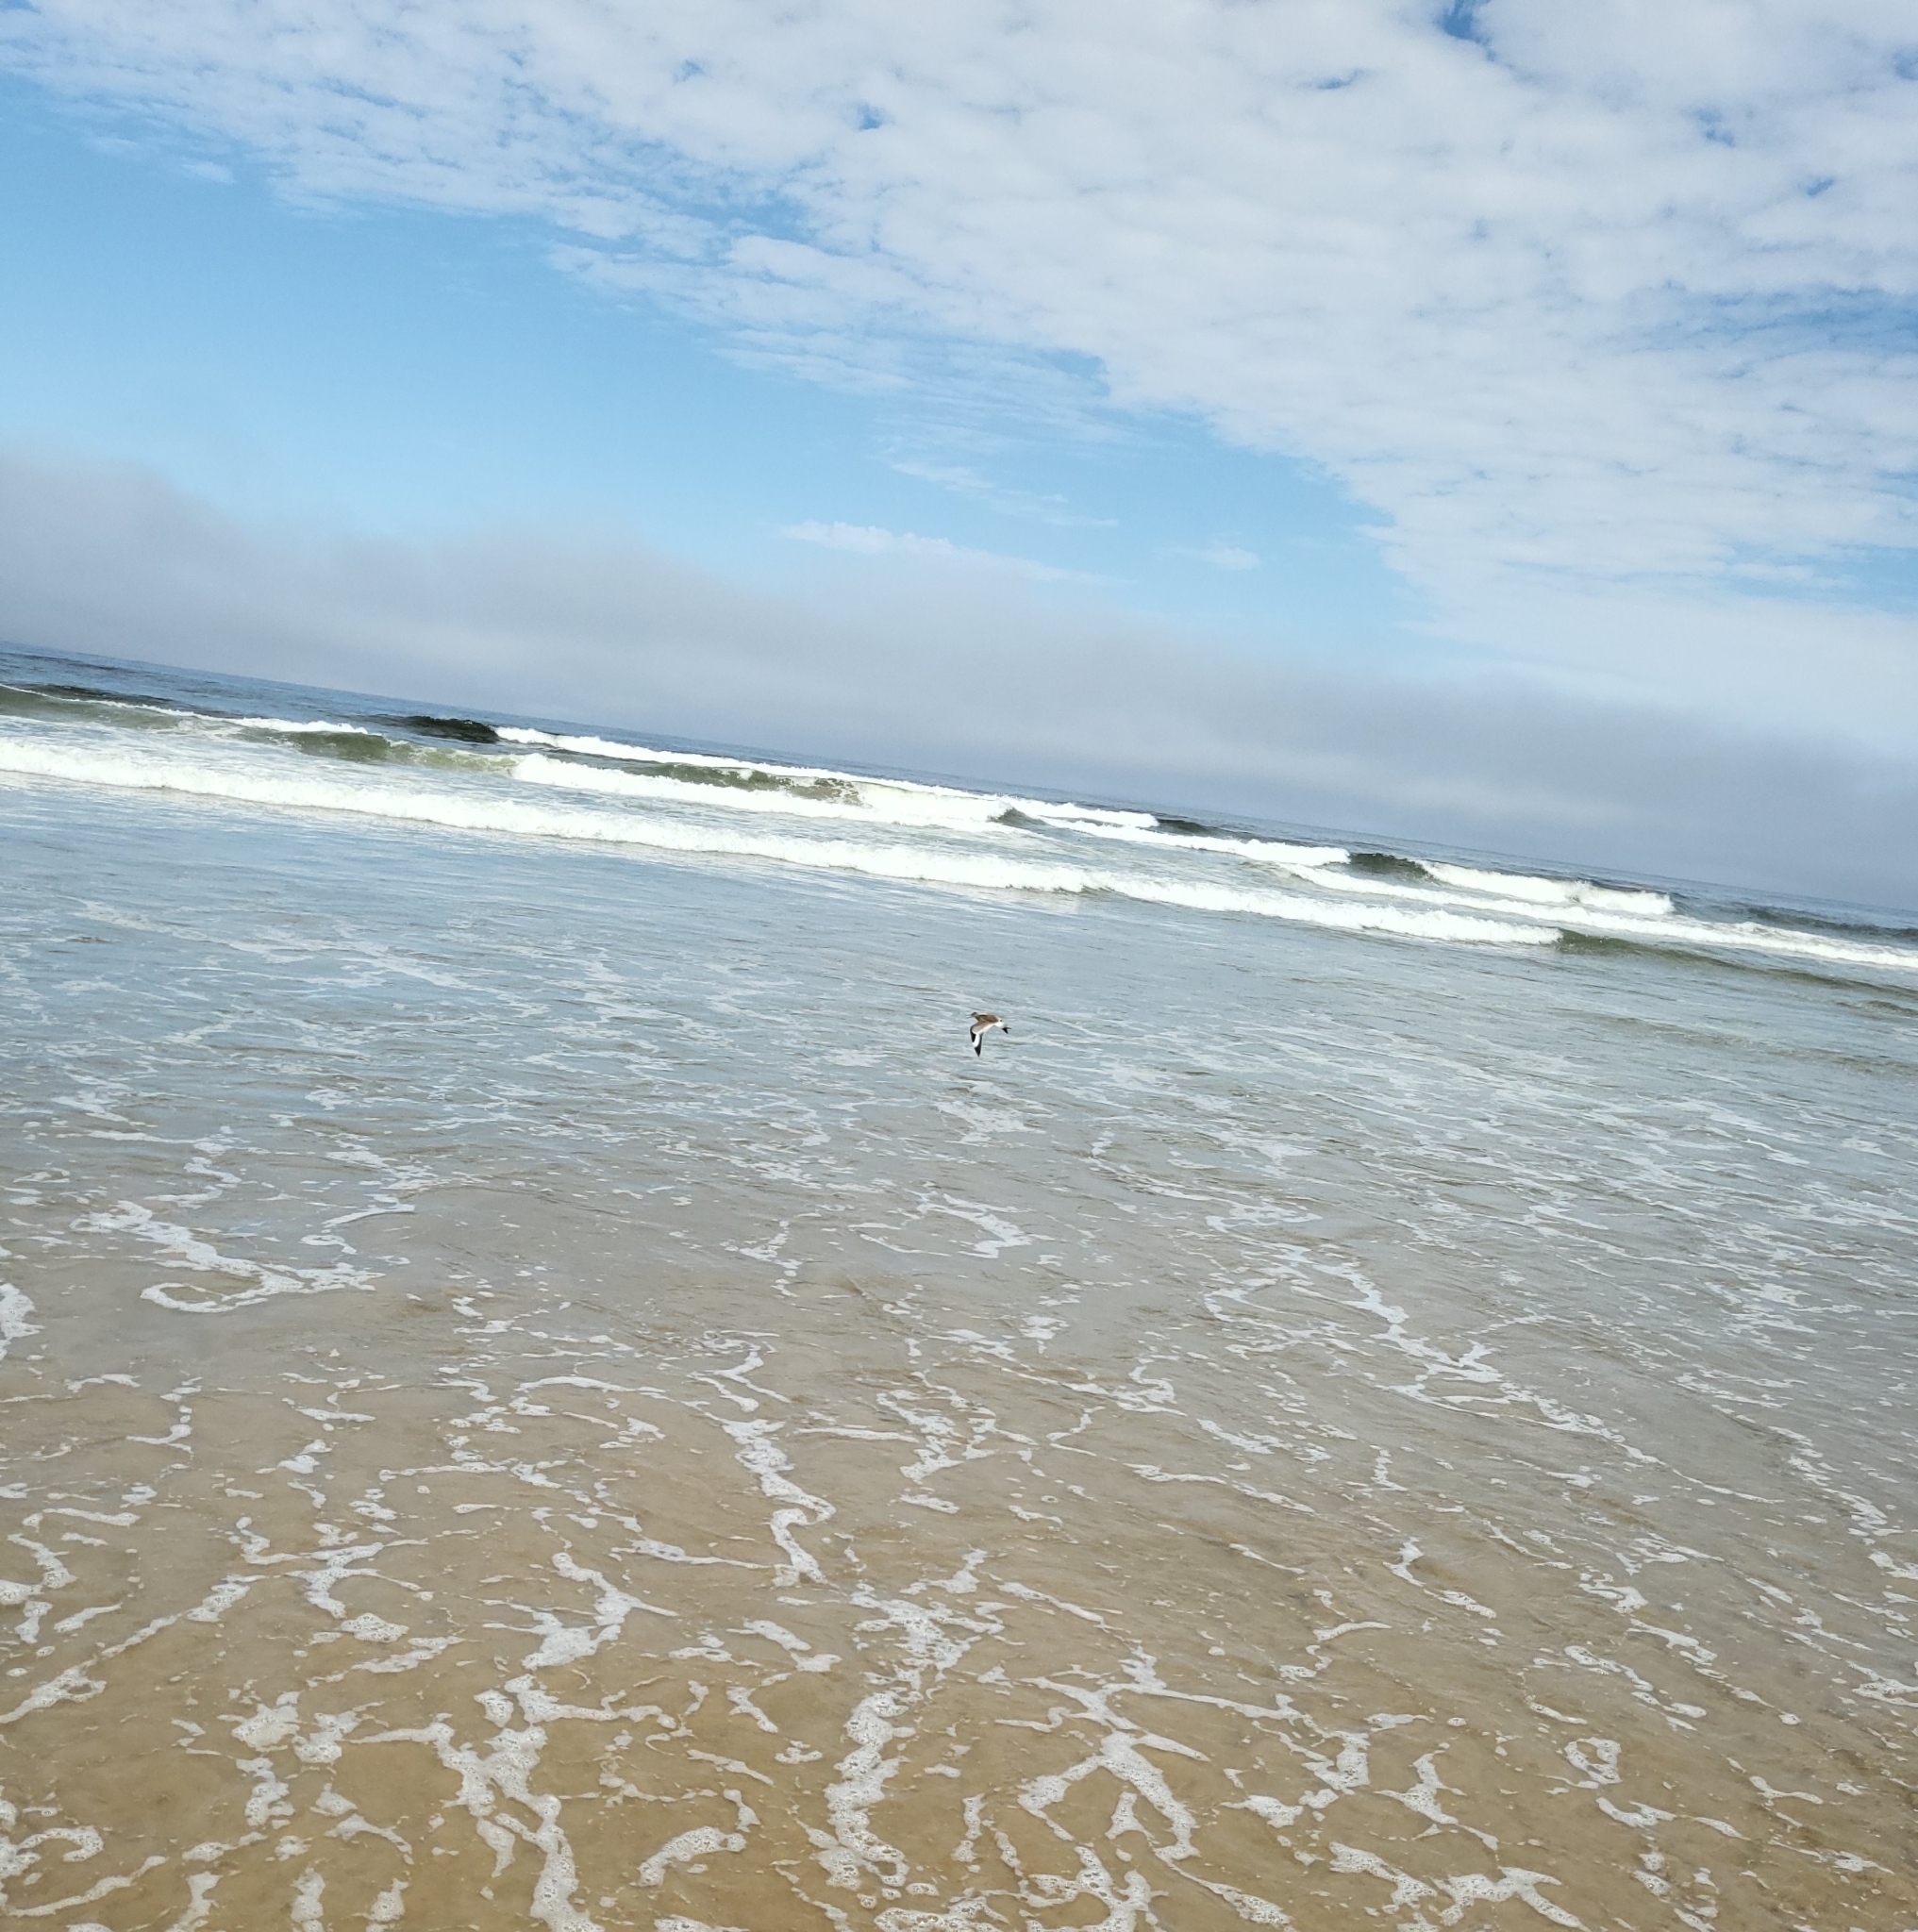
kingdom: Animalia
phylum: Chordata
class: Aves
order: Charadriiformes
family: Scolopacidae
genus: Tringa
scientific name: Tringa semipalmata
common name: Willet
